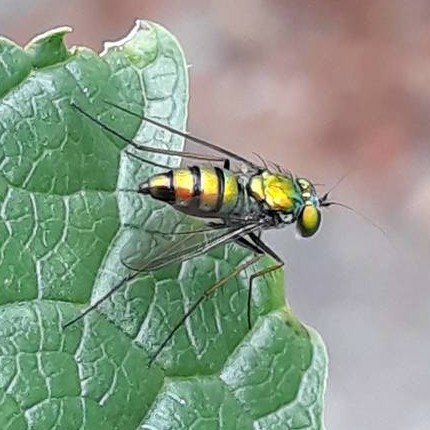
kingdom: Animalia
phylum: Arthropoda
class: Insecta
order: Diptera
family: Dolichopodidae
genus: Condylostylus
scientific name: Condylostylus
